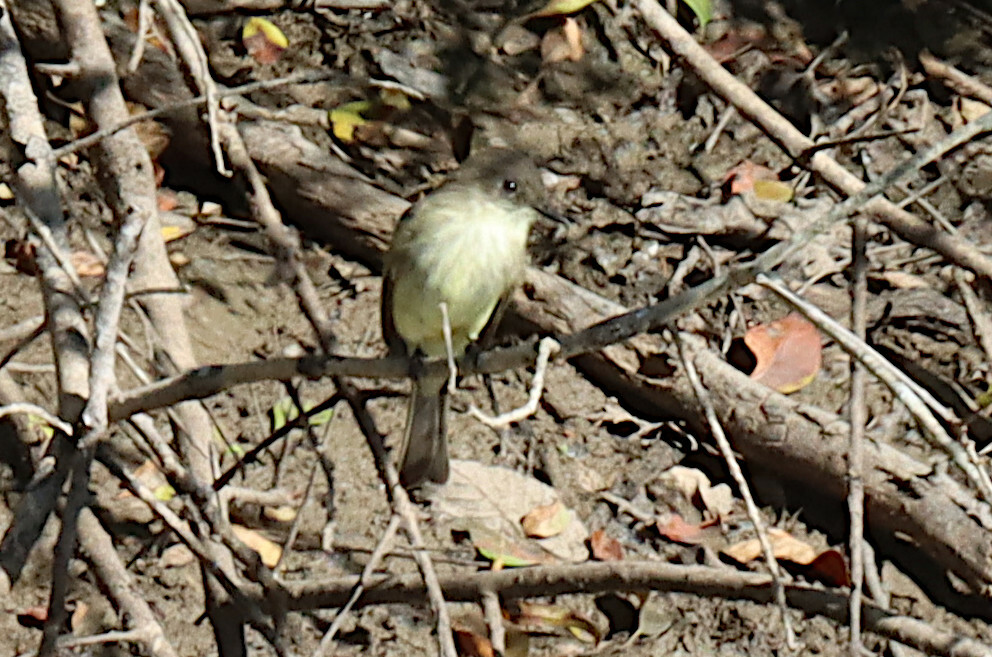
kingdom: Animalia
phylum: Chordata
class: Aves
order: Passeriformes
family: Tyrannidae
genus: Sayornis
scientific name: Sayornis phoebe
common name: Eastern phoebe
